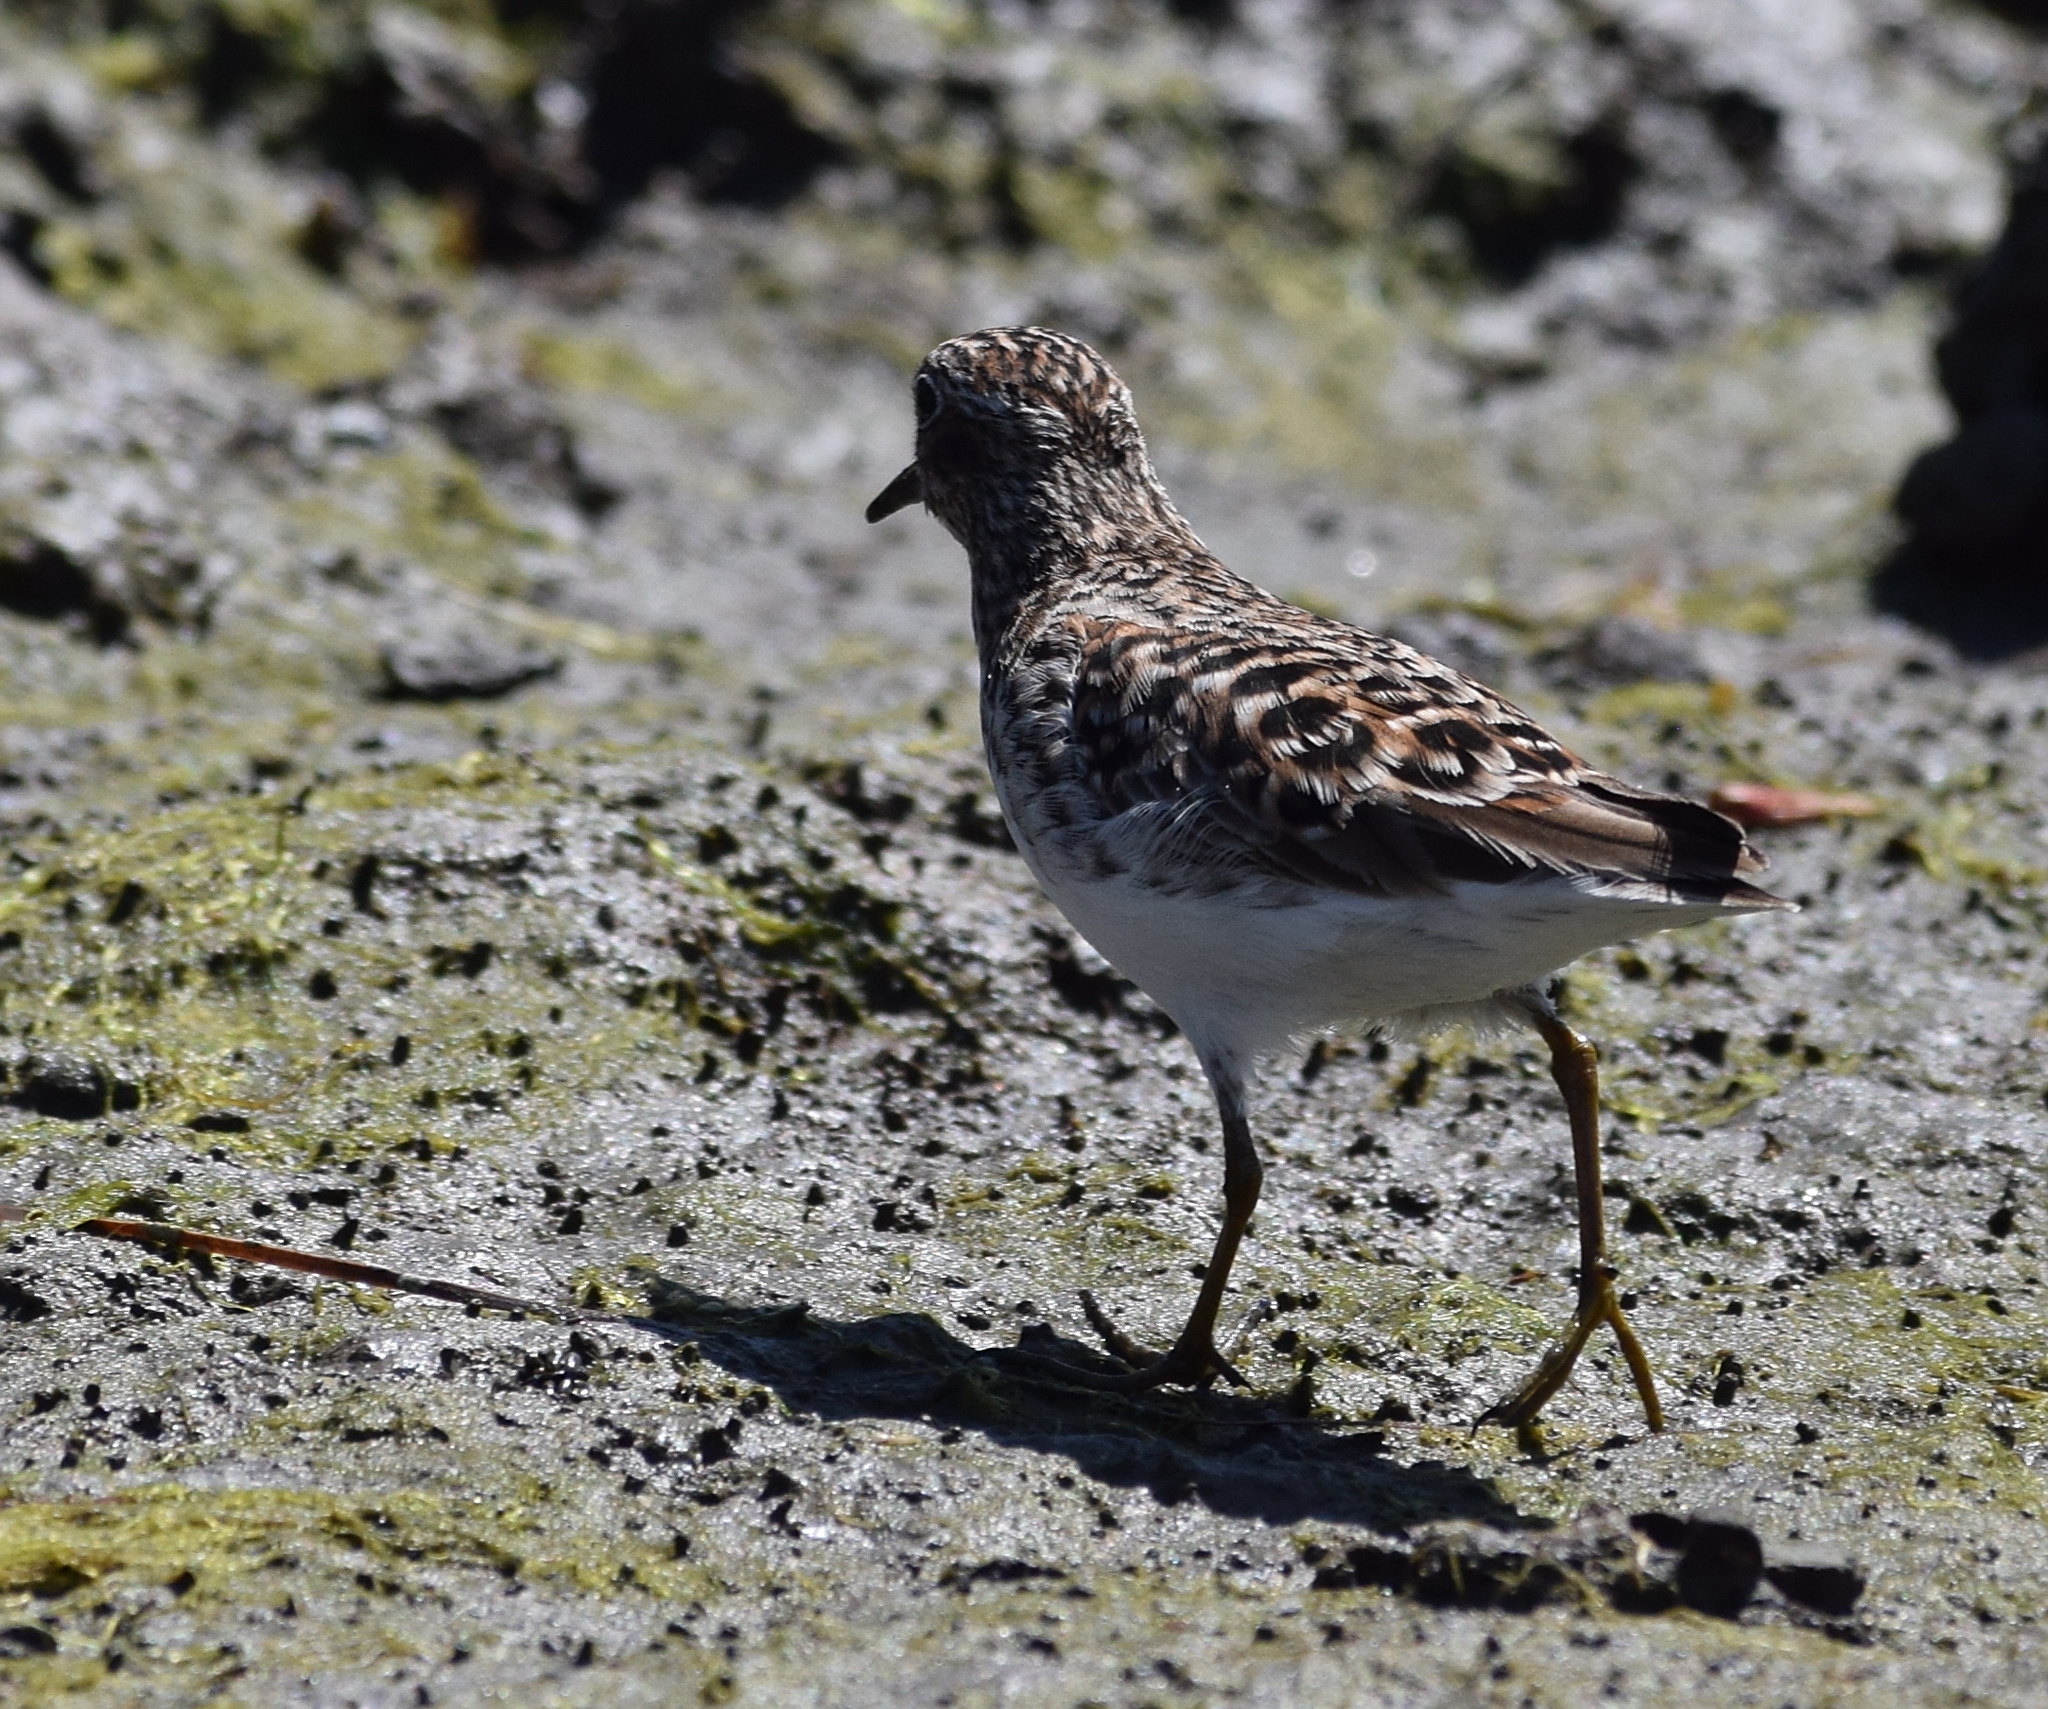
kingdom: Animalia
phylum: Chordata
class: Aves
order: Charadriiformes
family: Scolopacidae
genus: Calidris
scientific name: Calidris minutilla
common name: Least sandpiper
